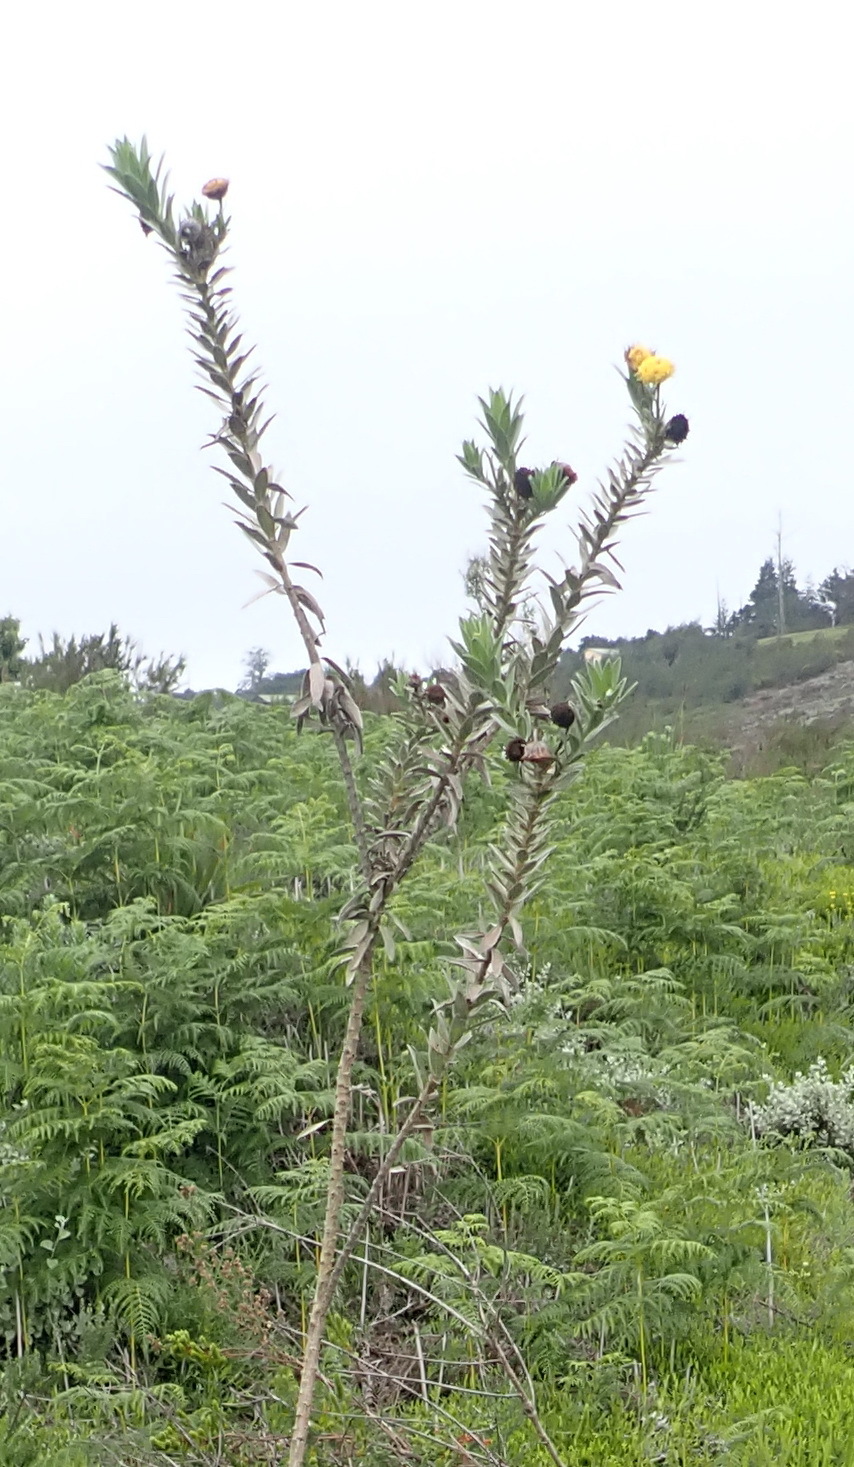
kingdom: Plantae
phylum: Tracheophyta
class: Magnoliopsida
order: Asterales
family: Asteraceae
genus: Schistostephium
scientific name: Schistostephium umbellatum
